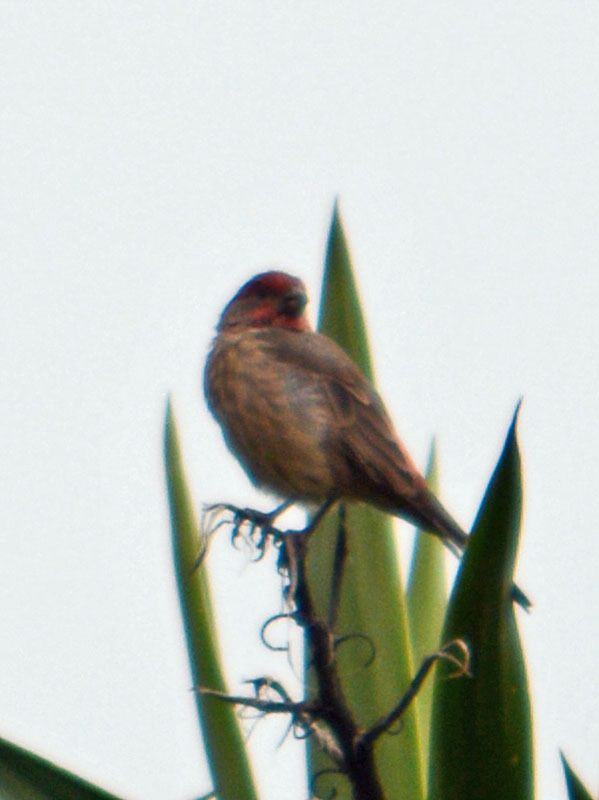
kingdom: Animalia
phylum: Chordata
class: Aves
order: Passeriformes
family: Fringillidae
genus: Haemorhous
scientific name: Haemorhous mexicanus
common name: House finch
